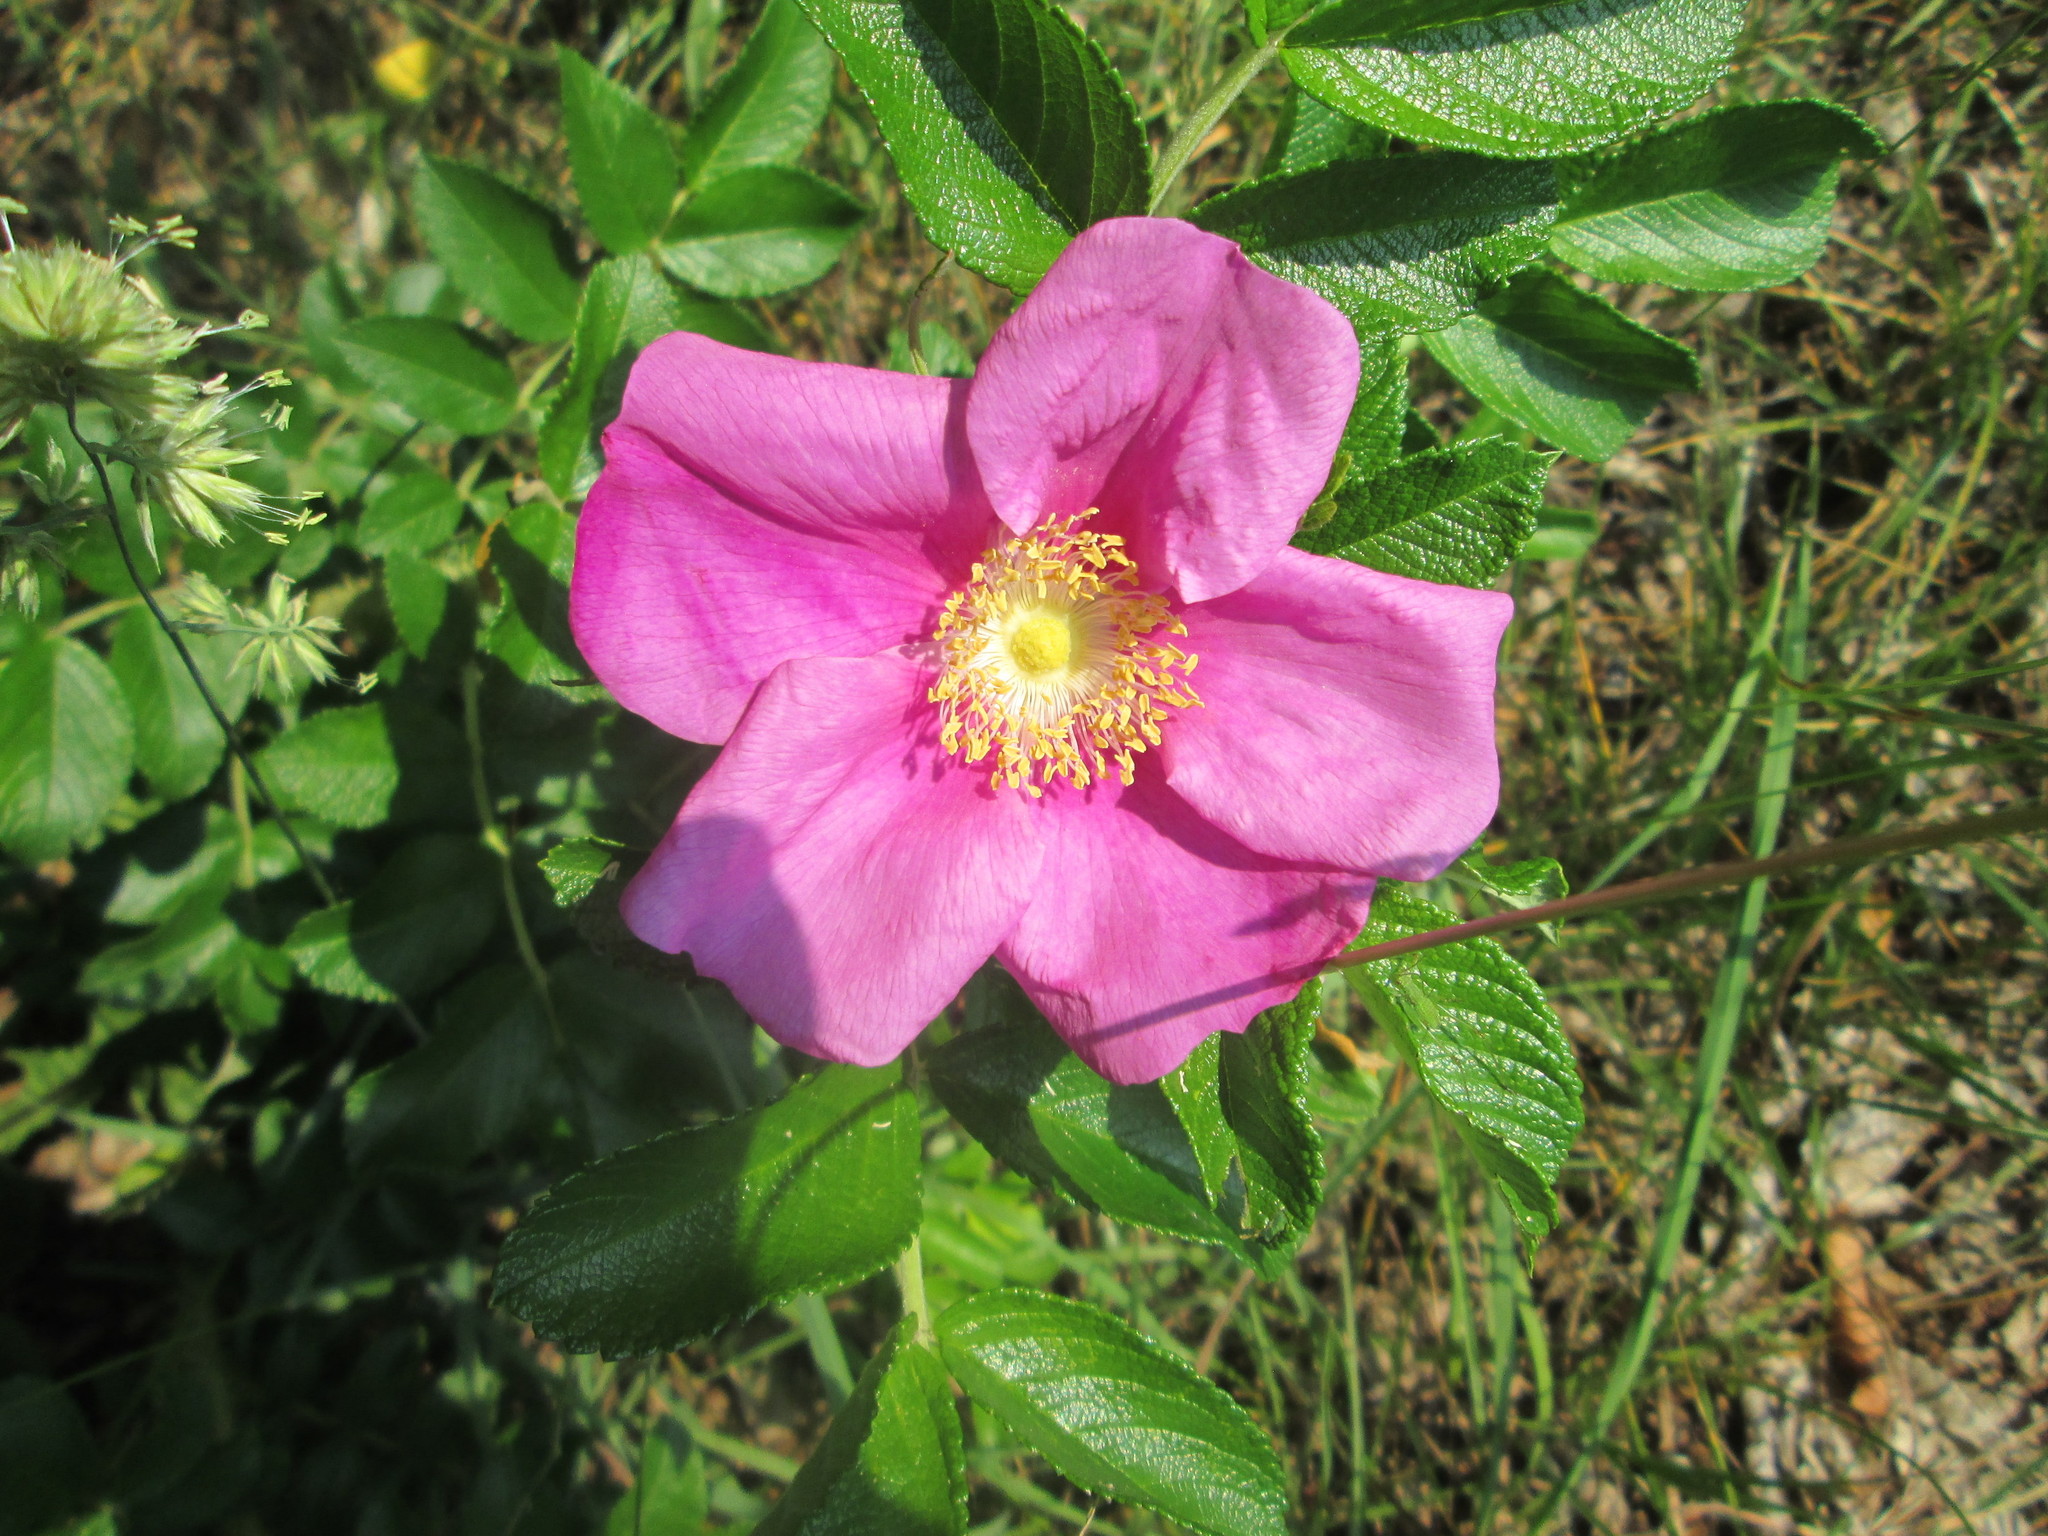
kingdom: Plantae
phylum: Tracheophyta
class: Magnoliopsida
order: Rosales
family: Rosaceae
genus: Rosa
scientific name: Rosa rugosa
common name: Japanese rose
